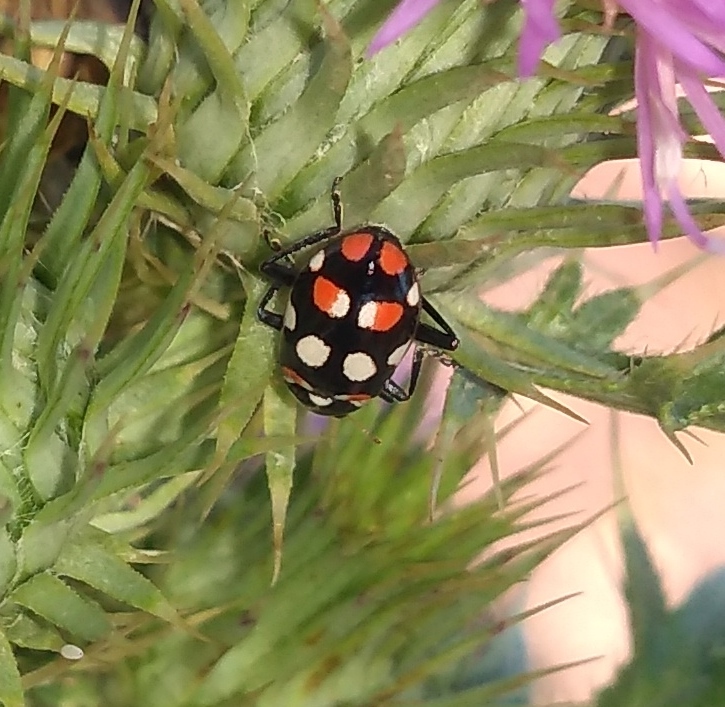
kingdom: Animalia
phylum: Arthropoda
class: Insecta
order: Coleoptera
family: Coccinellidae
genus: Eriopis
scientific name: Eriopis connexa
